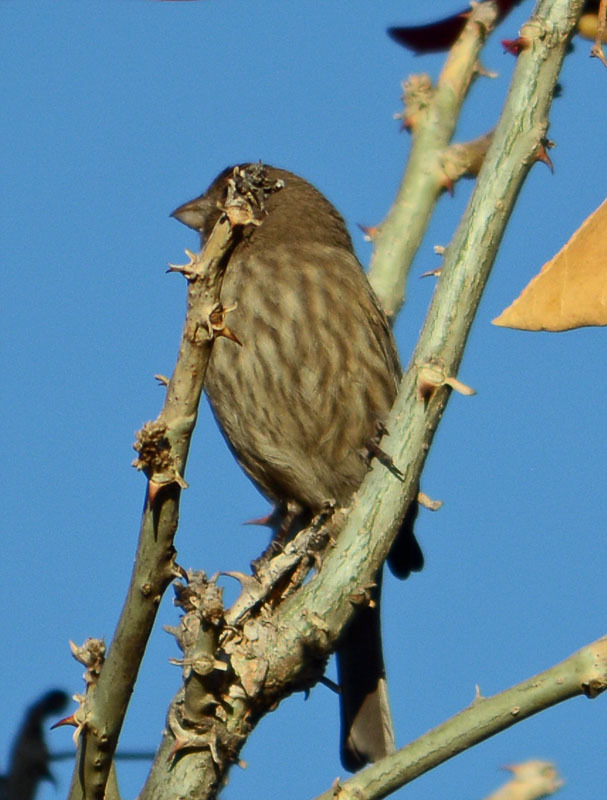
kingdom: Animalia
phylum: Chordata
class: Aves
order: Passeriformes
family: Fringillidae
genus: Haemorhous
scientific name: Haemorhous mexicanus
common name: House finch
